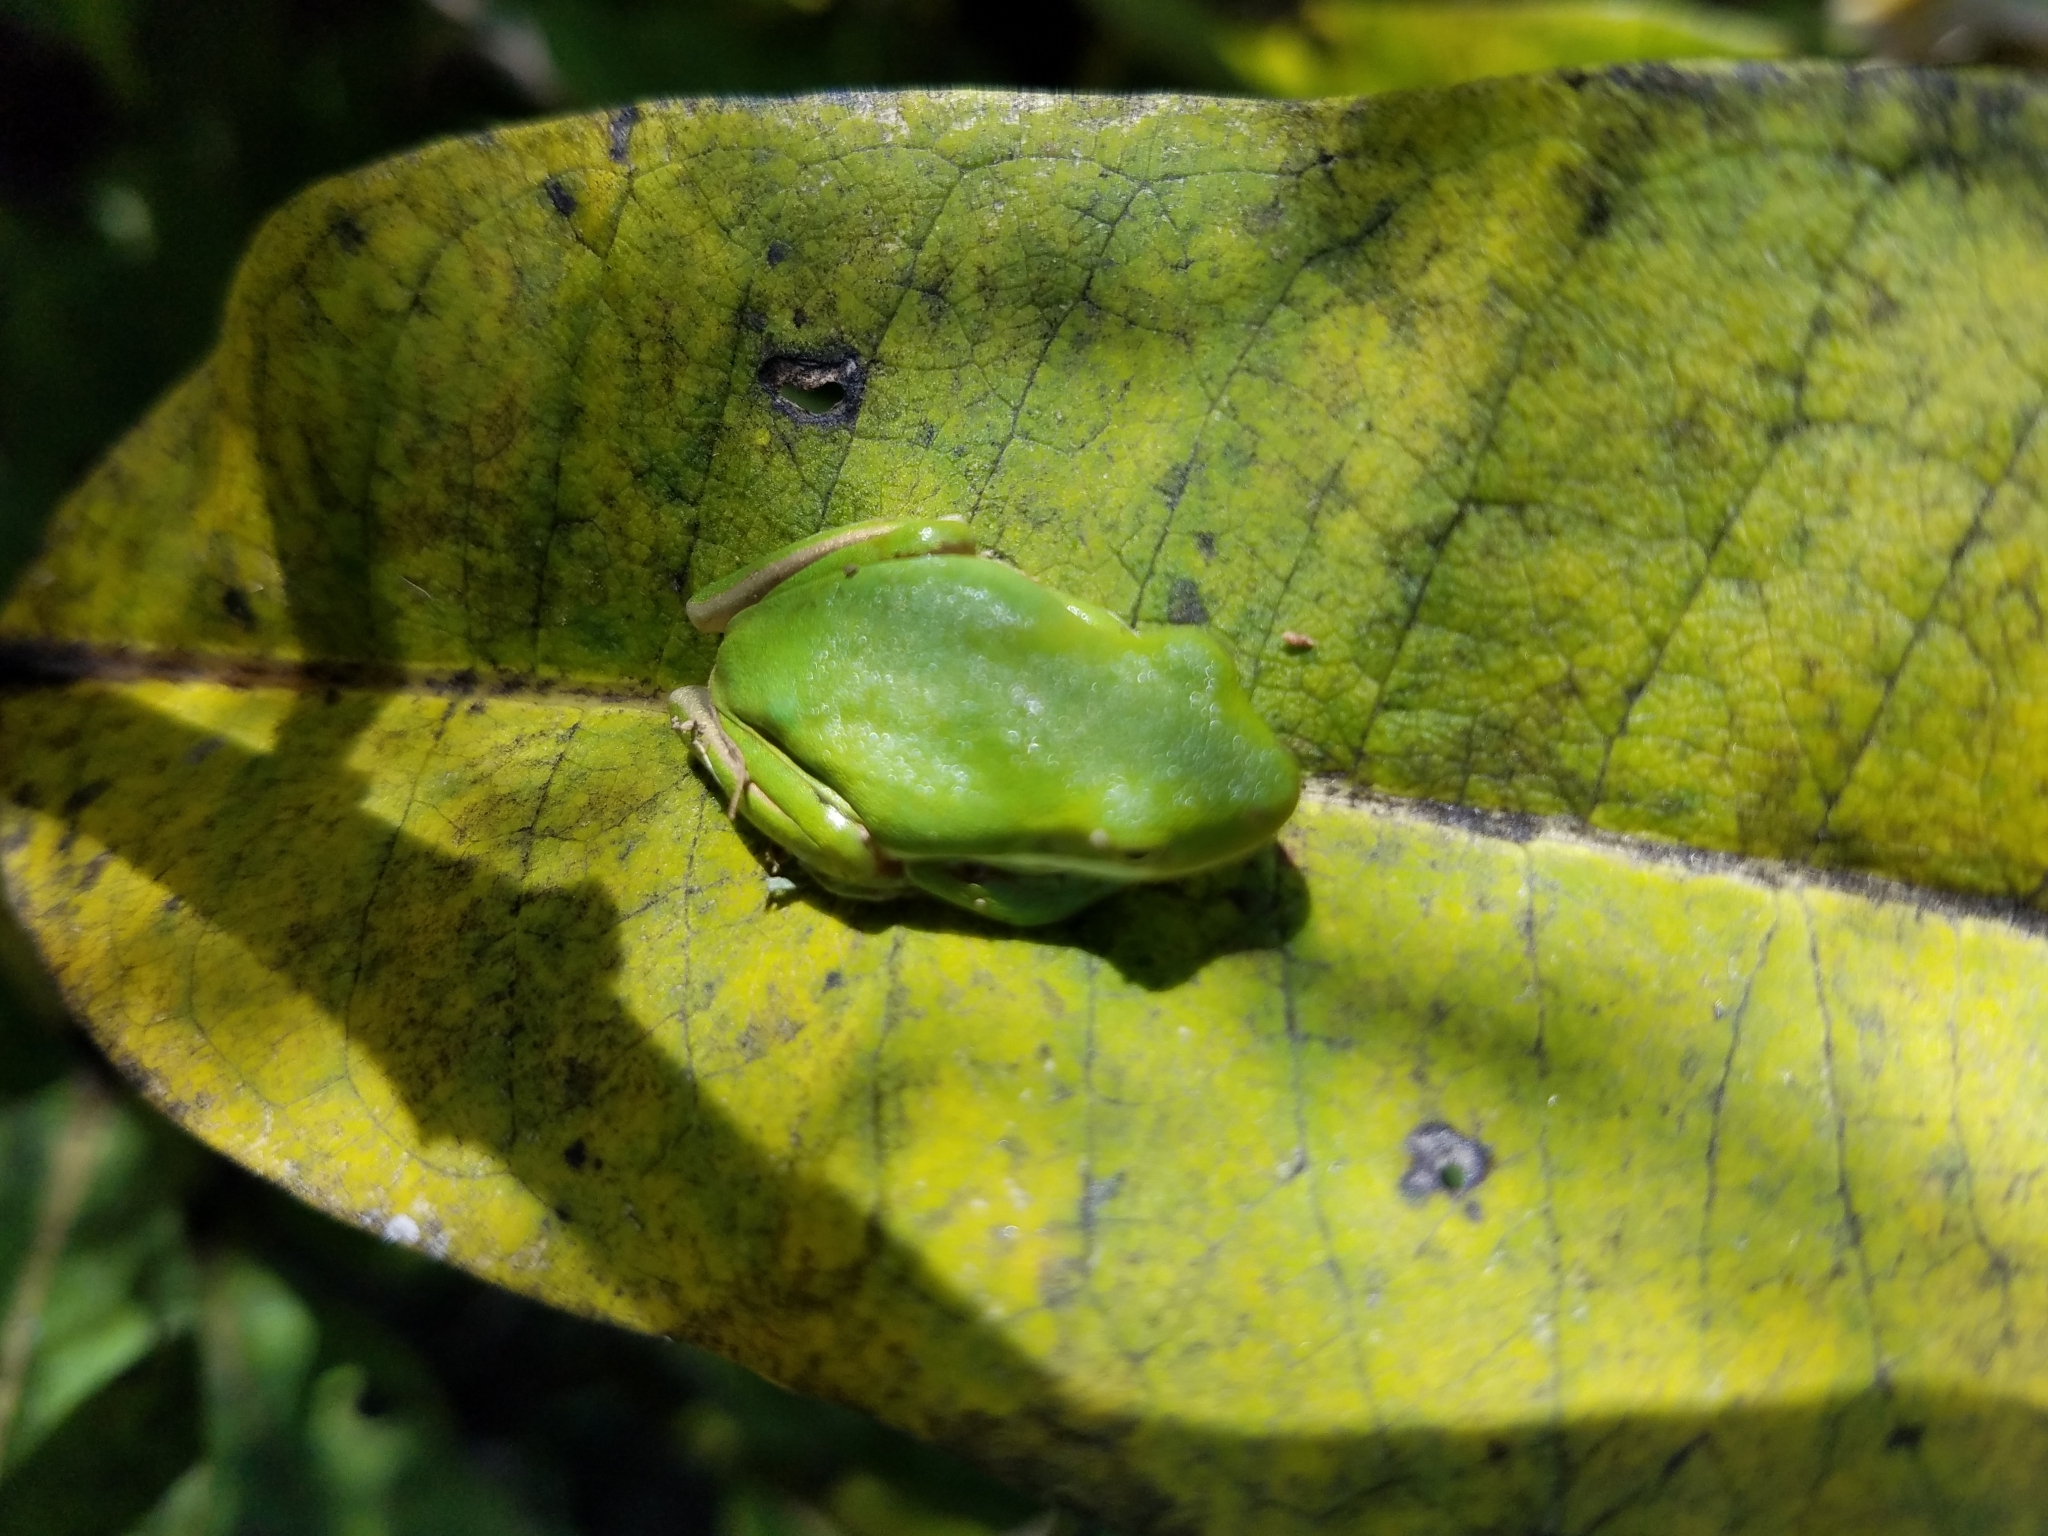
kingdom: Animalia
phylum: Chordata
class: Amphibia
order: Anura
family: Hylidae
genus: Dryophytes
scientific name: Dryophytes cinereus
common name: Green treefrog
